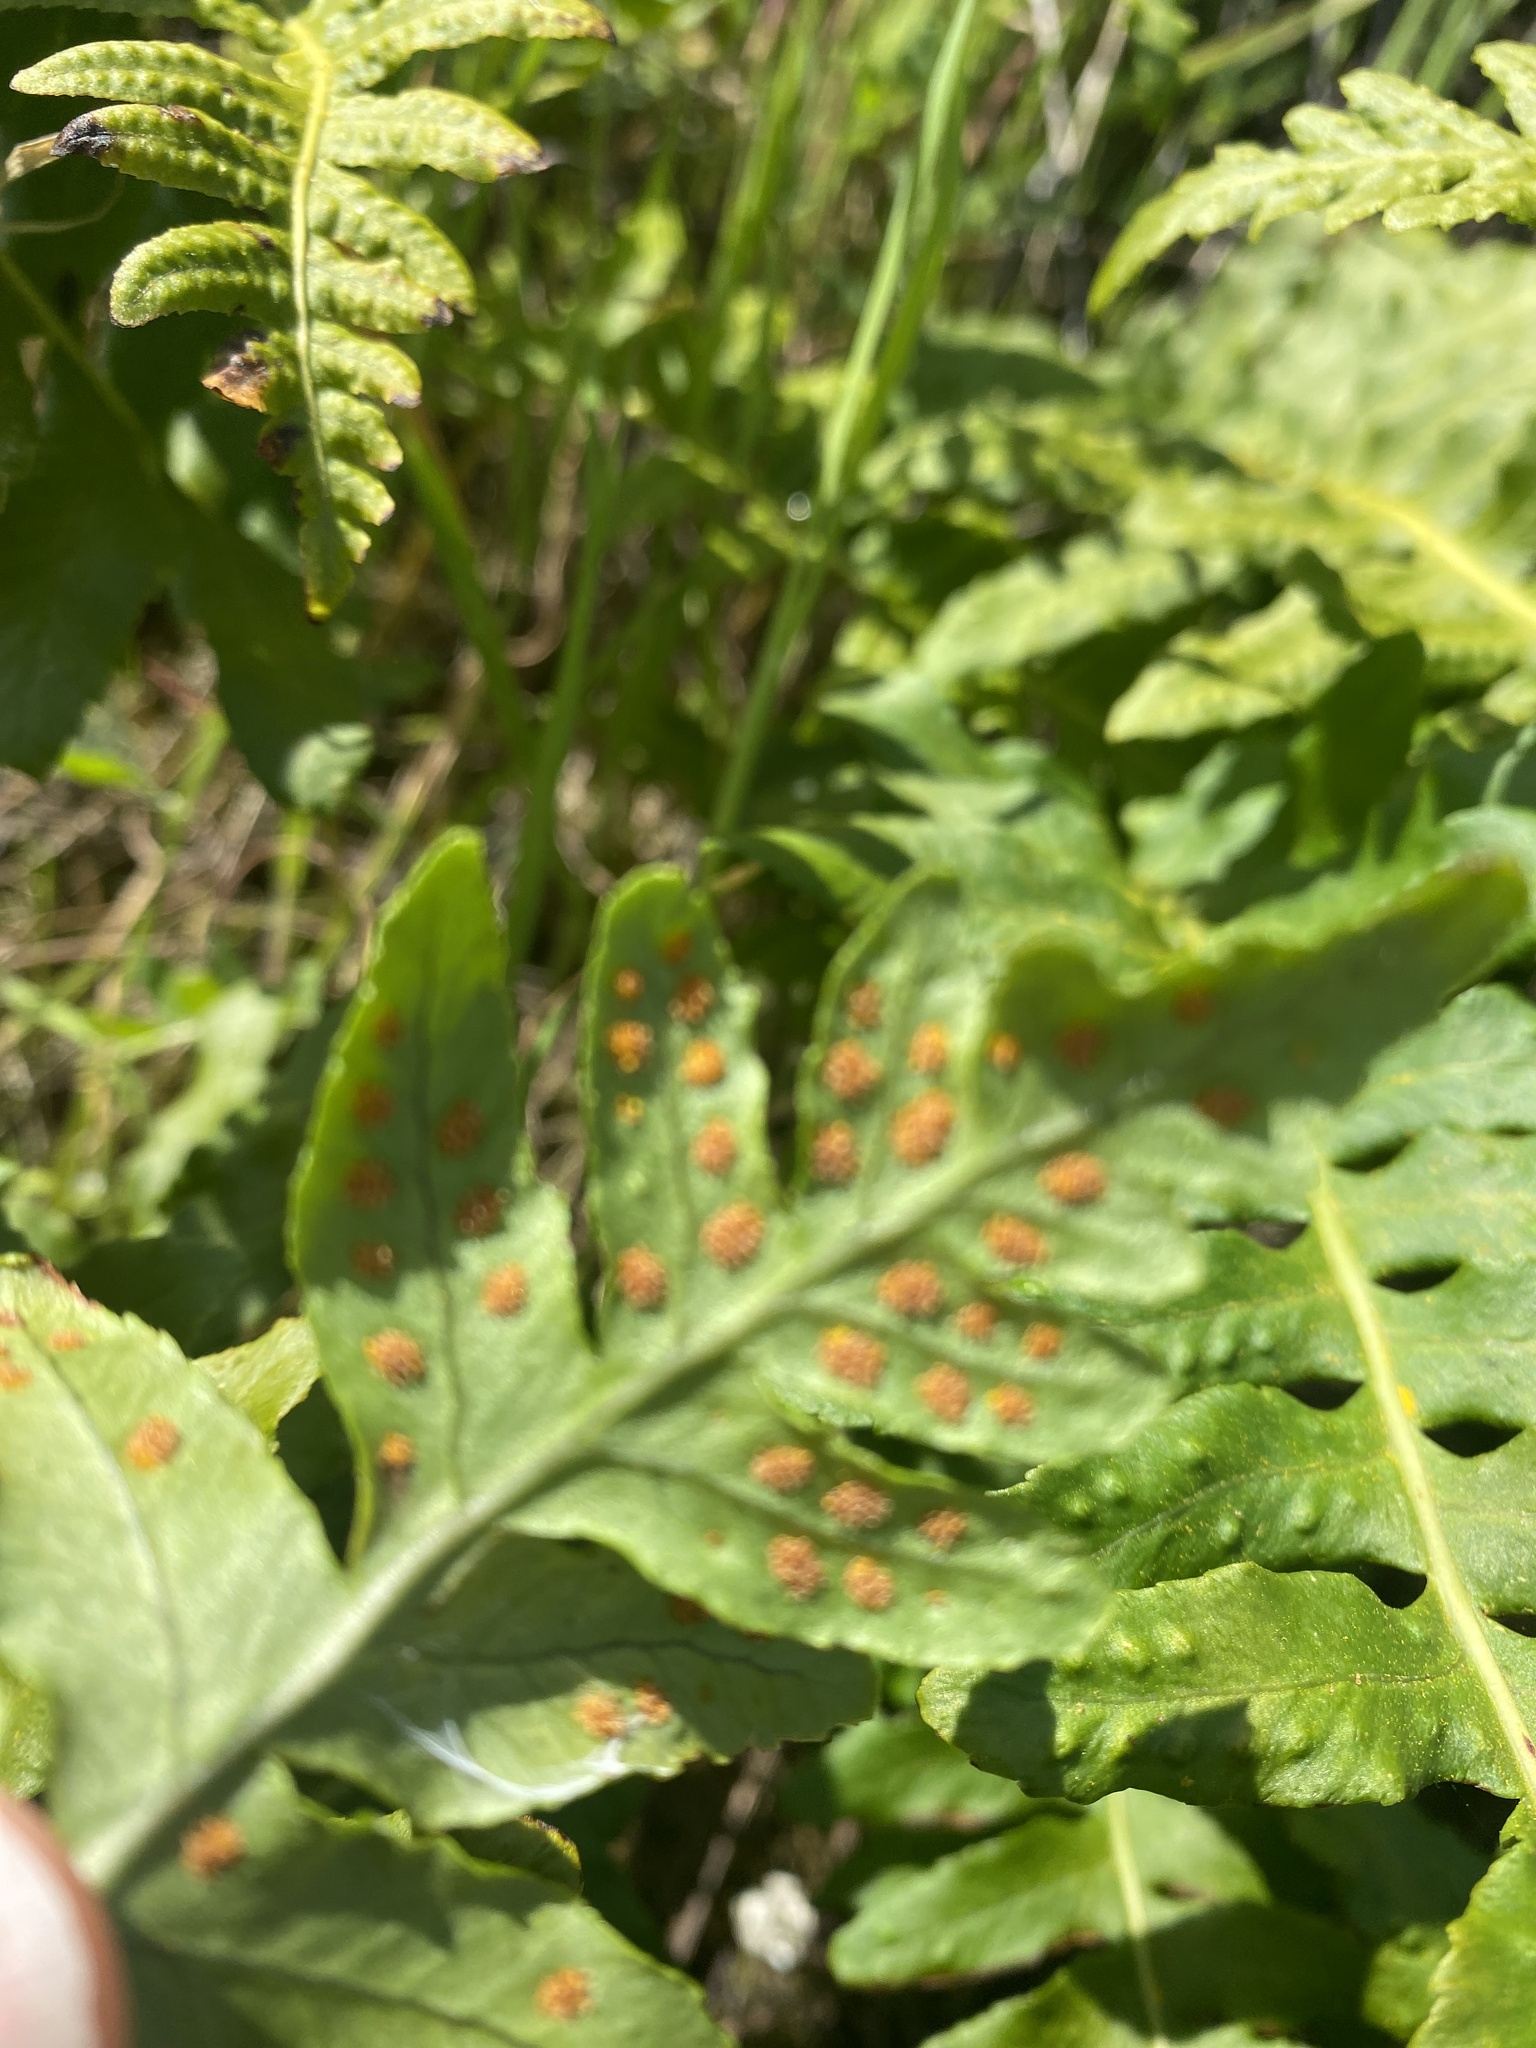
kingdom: Plantae
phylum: Tracheophyta
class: Polypodiopsida
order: Polypodiales
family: Polypodiaceae
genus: Polypodium
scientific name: Polypodium californicum
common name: California polypody
